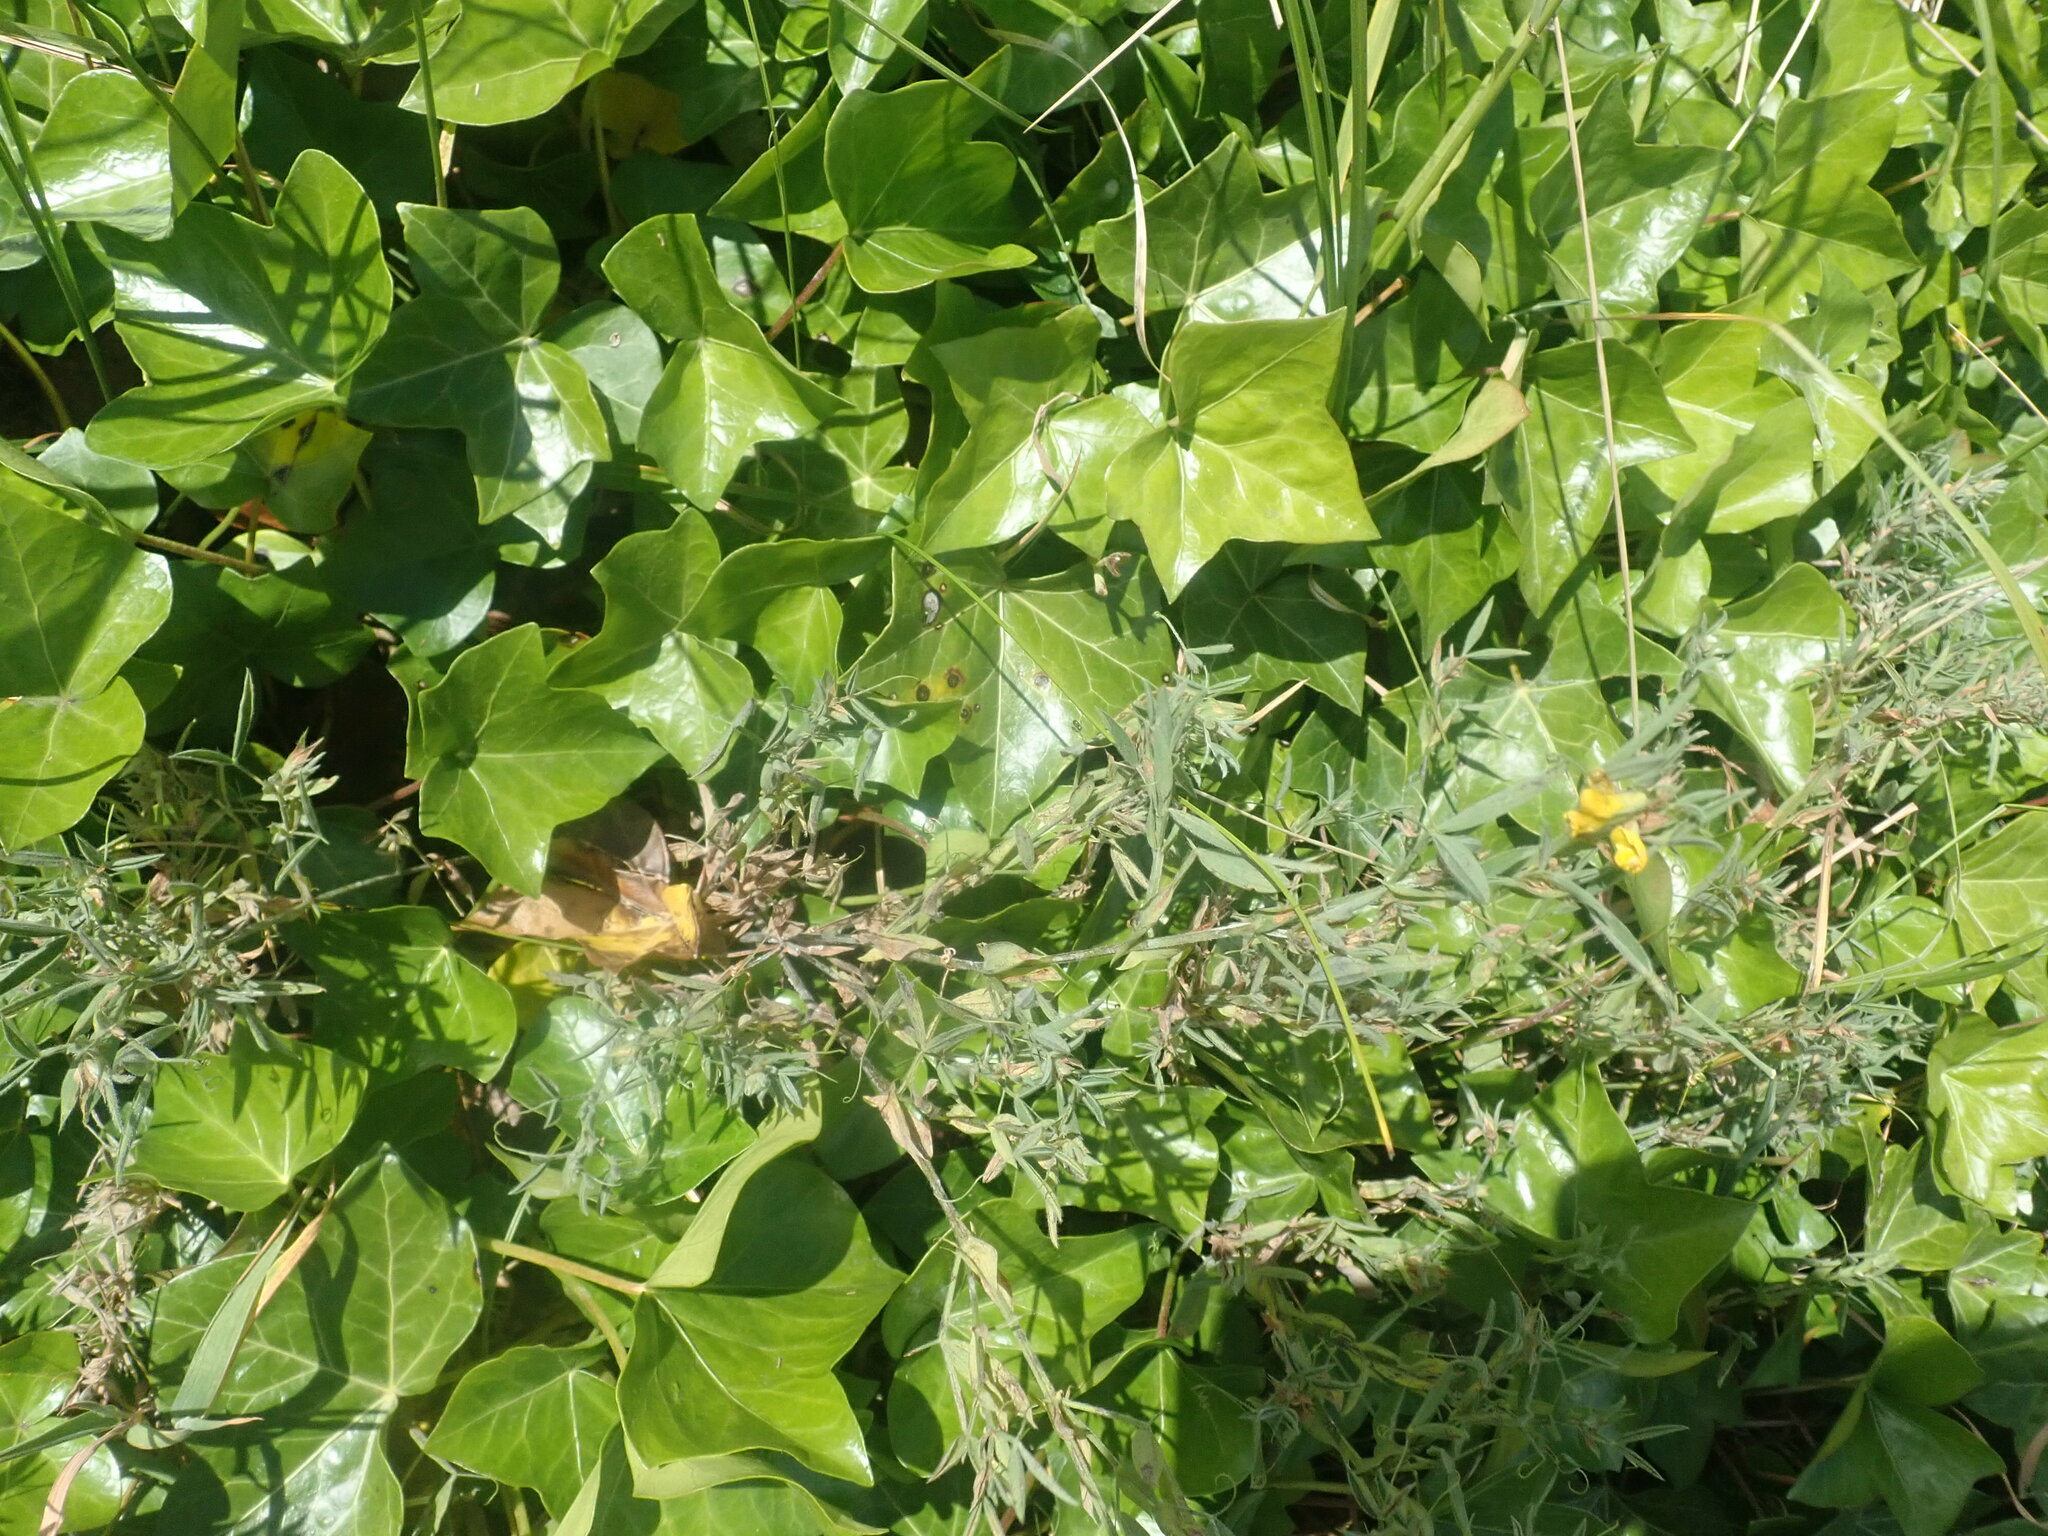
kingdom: Plantae
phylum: Tracheophyta
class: Magnoliopsida
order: Fabales
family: Fabaceae
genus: Lathyrus
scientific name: Lathyrus pratensis
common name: Meadow vetchling
